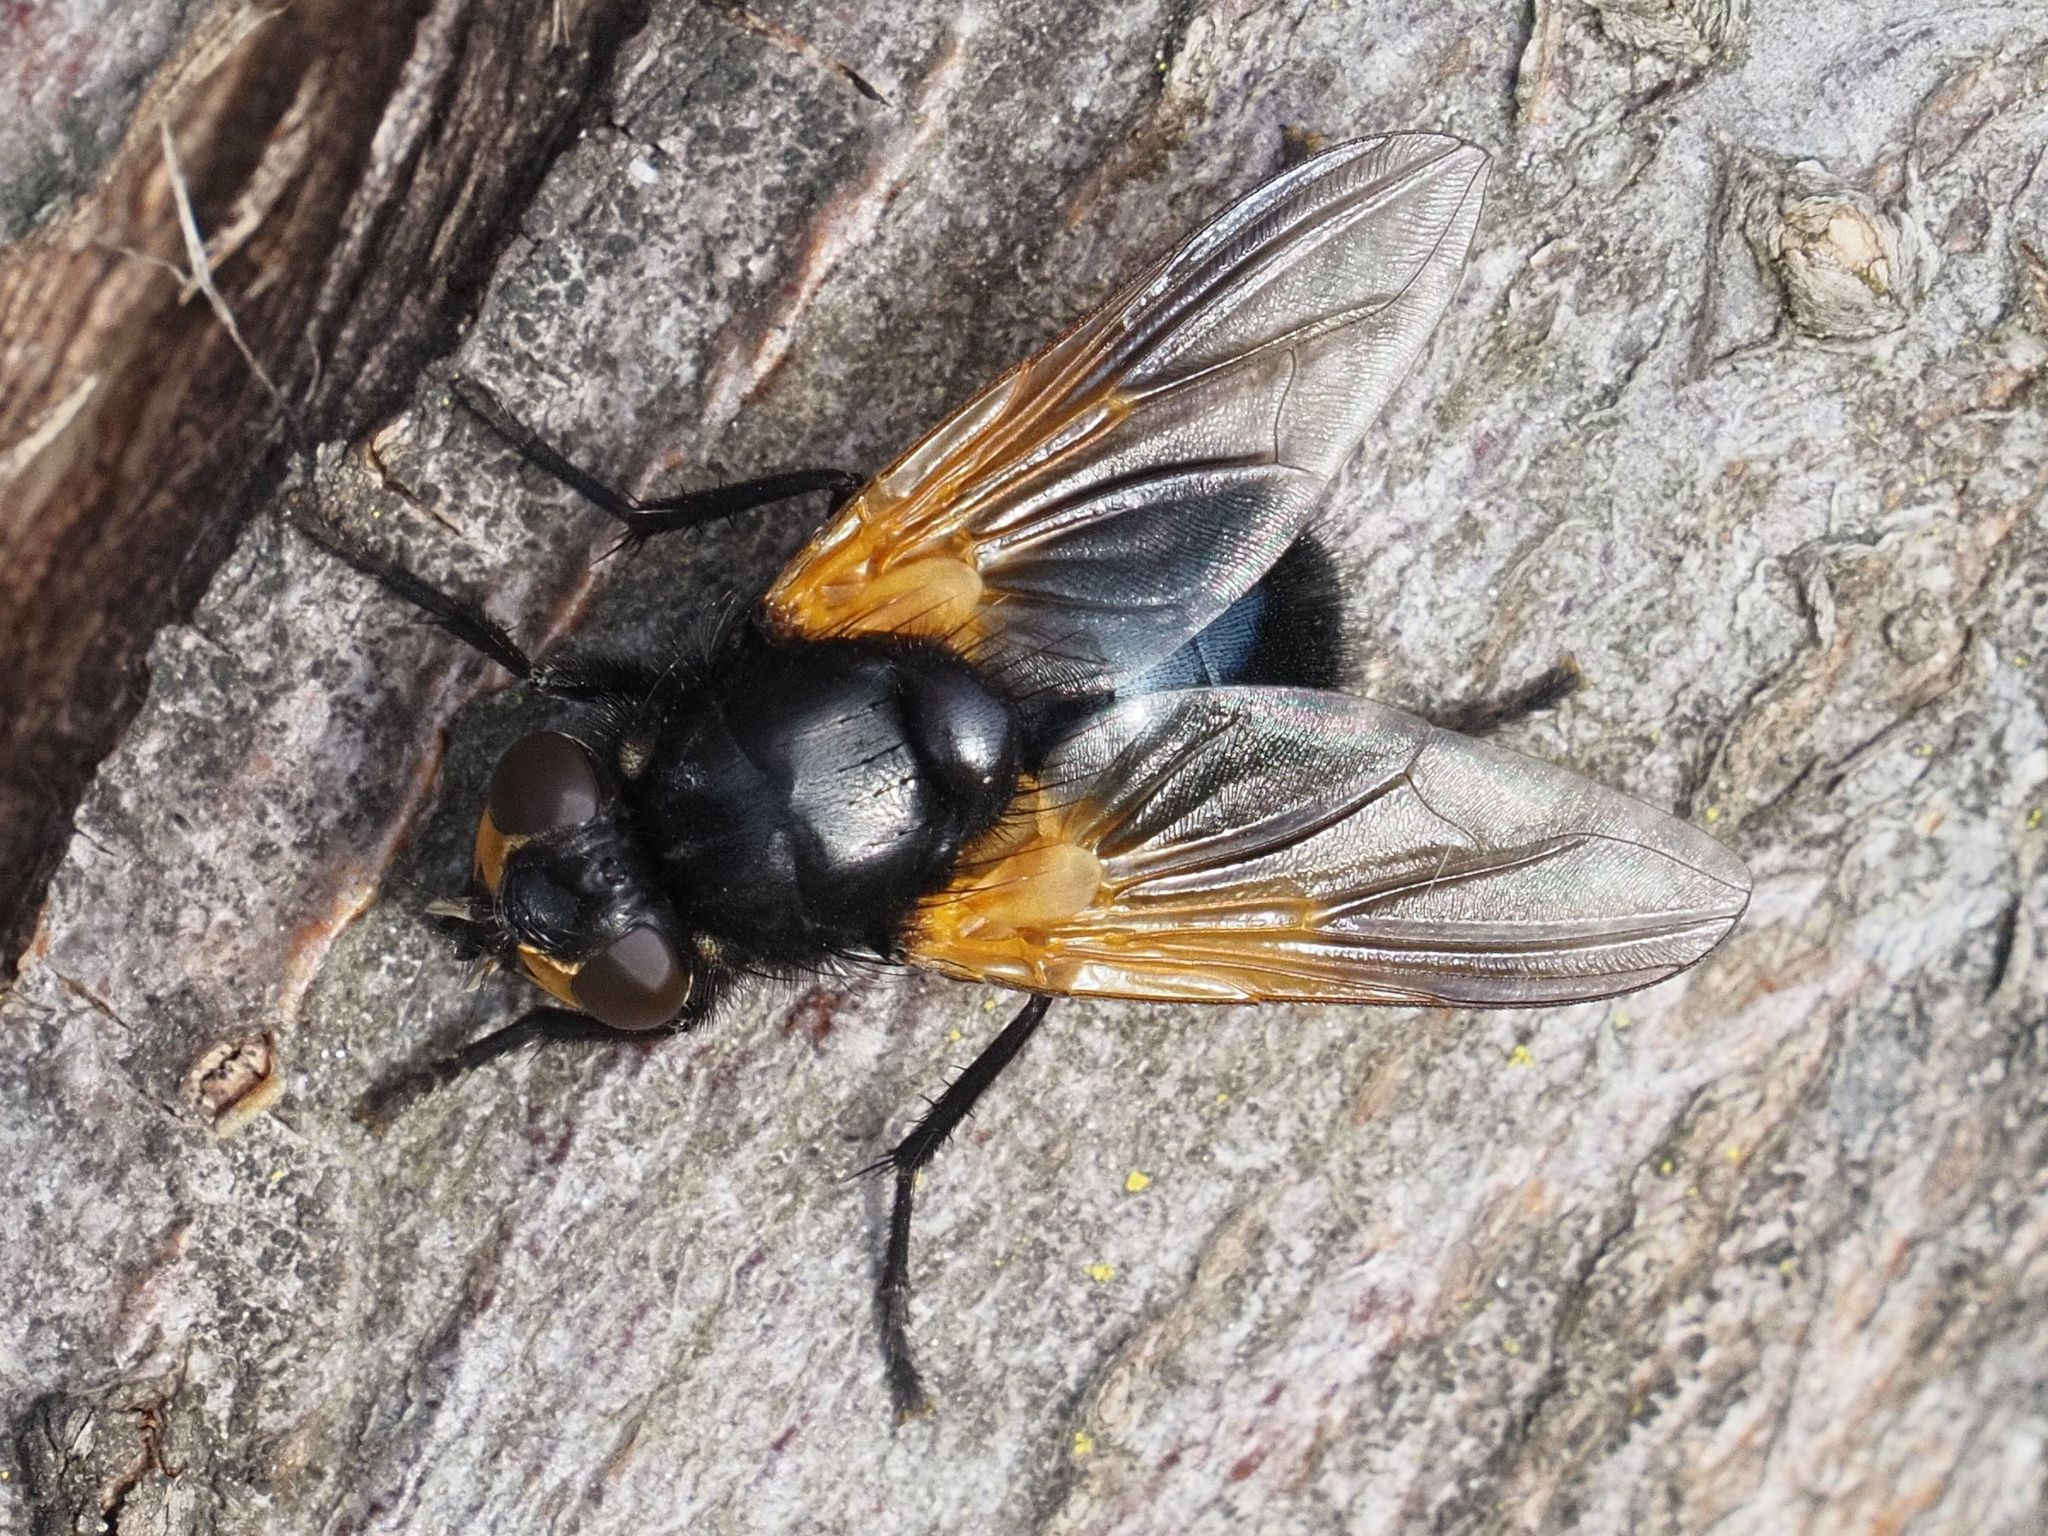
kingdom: Animalia
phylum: Arthropoda
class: Insecta
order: Diptera
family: Muscidae
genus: Mesembrina
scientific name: Mesembrina meridiana
